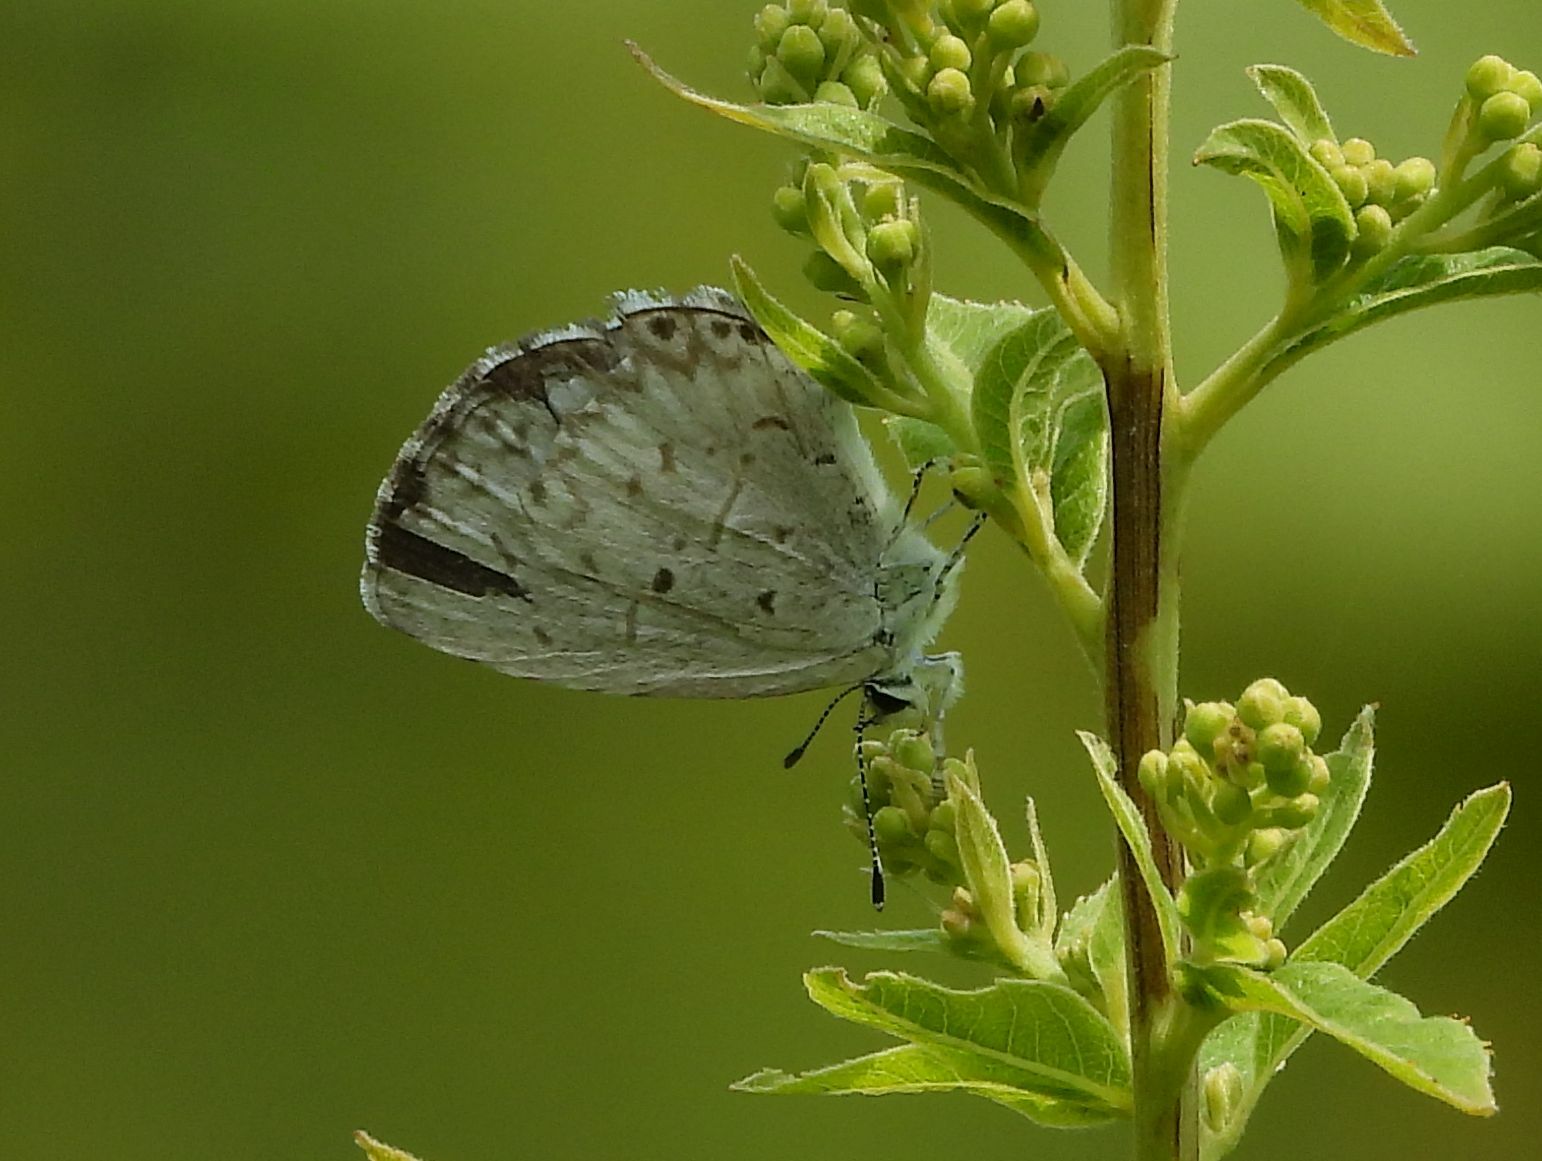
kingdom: Animalia
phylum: Arthropoda
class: Insecta
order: Lepidoptera
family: Lycaenidae
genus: Celastrina
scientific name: Celastrina lucia
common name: Lucia azure
